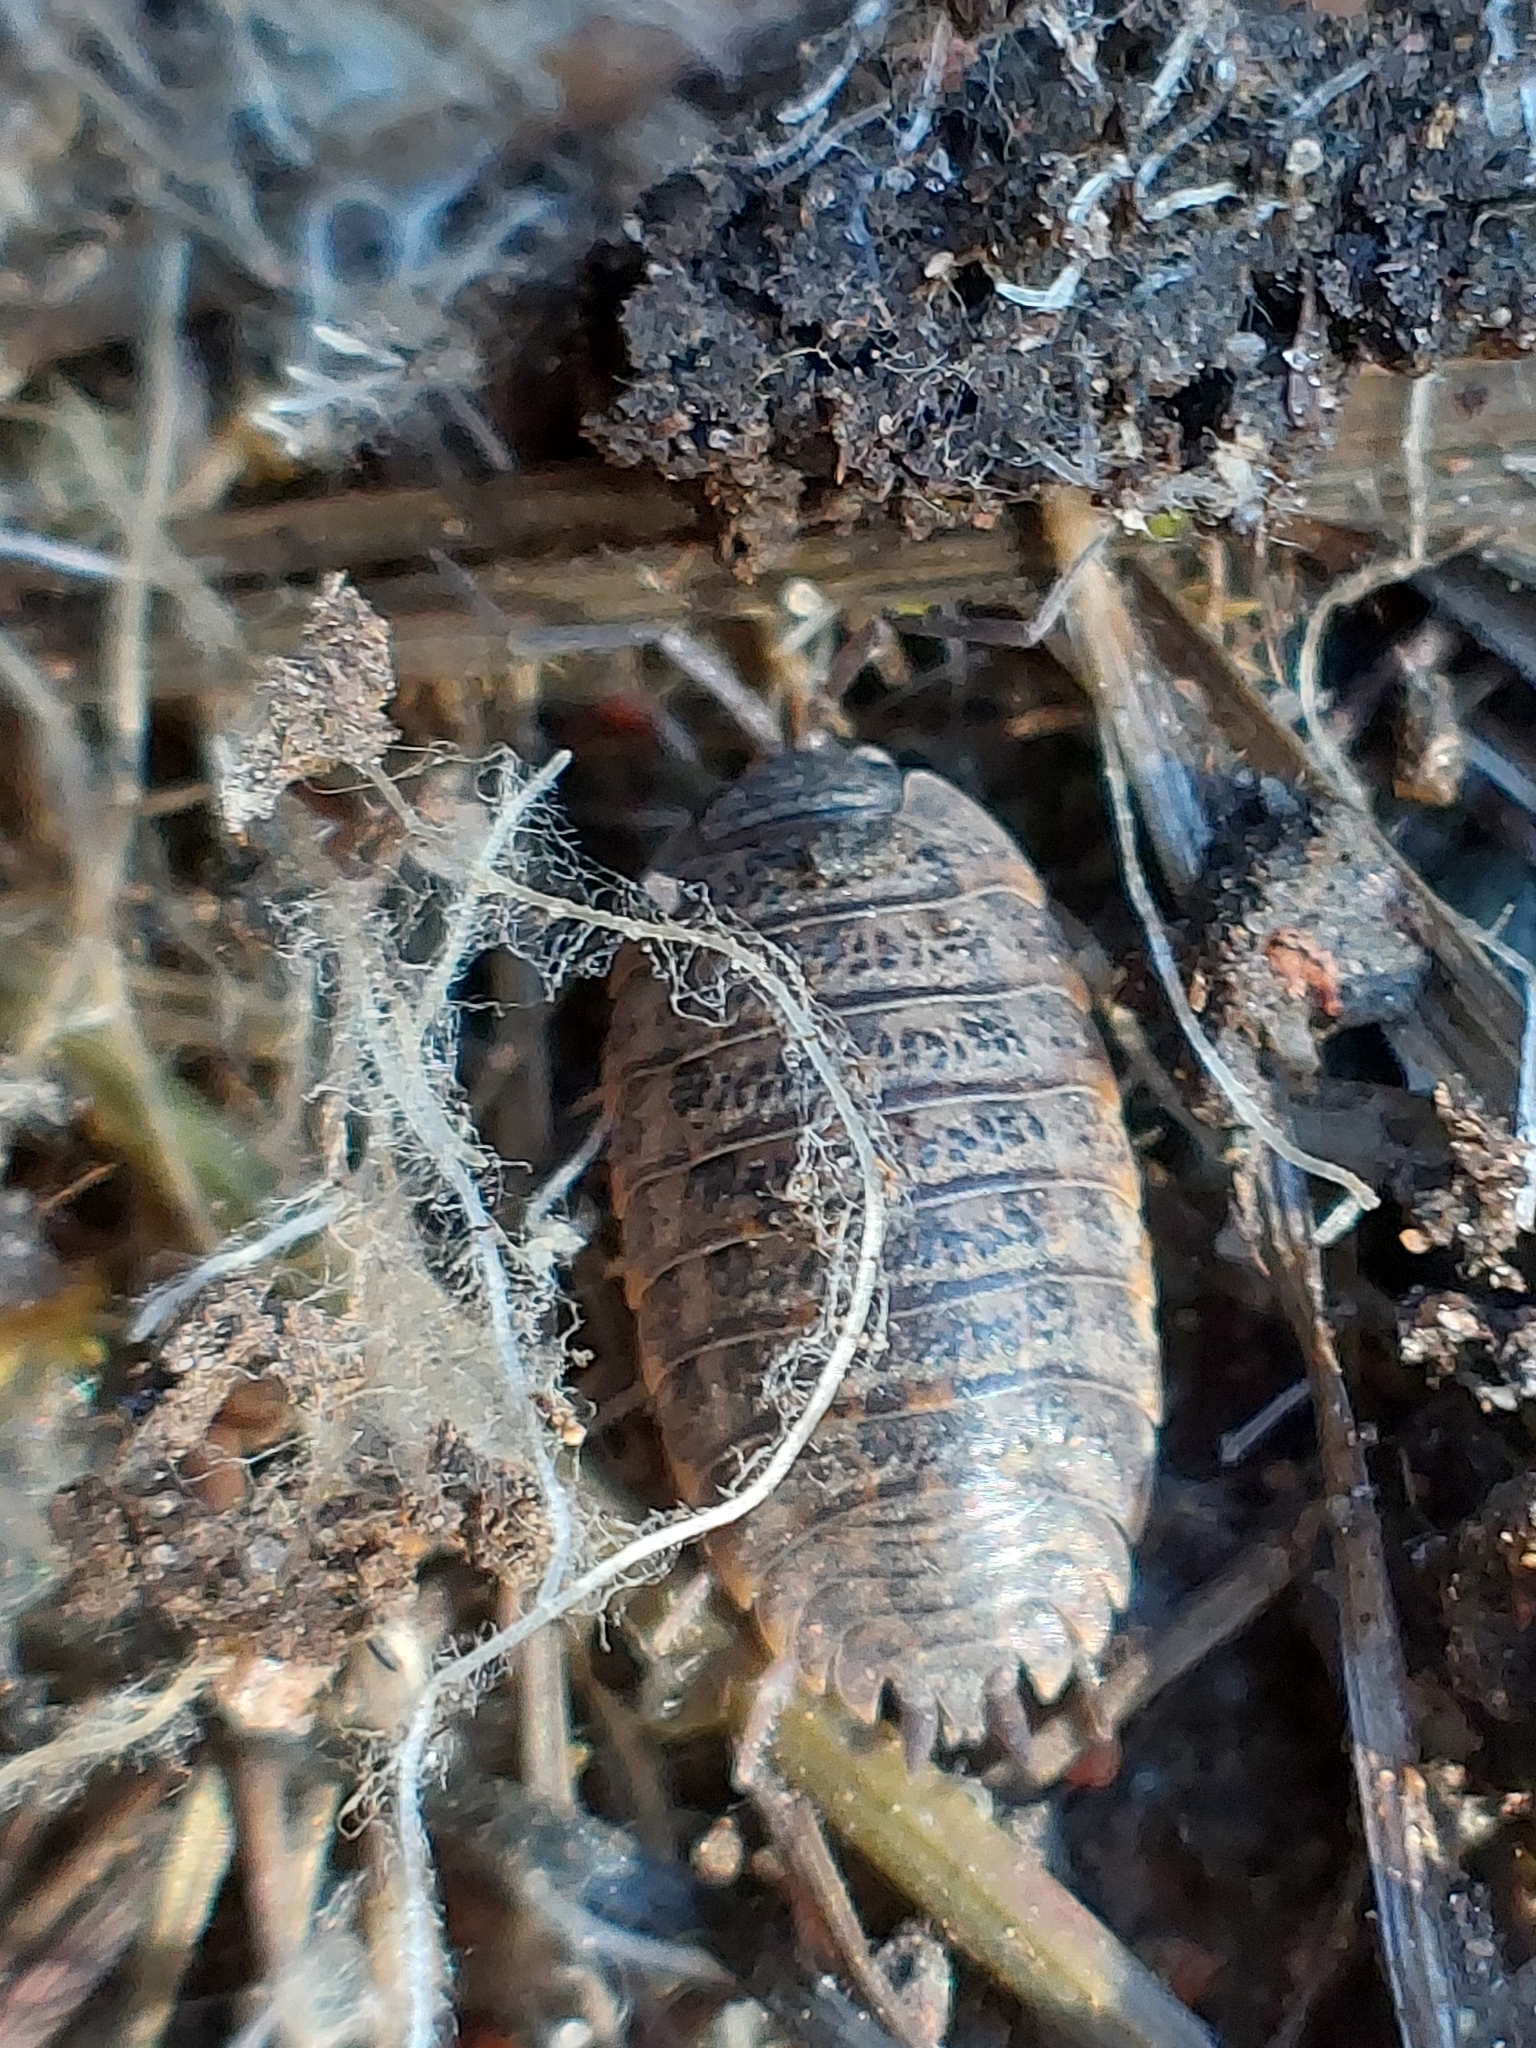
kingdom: Animalia
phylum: Arthropoda
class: Malacostraca
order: Isopoda
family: Trachelipodidae
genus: Trachelipus
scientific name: Trachelipus rathkii
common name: Isopod
